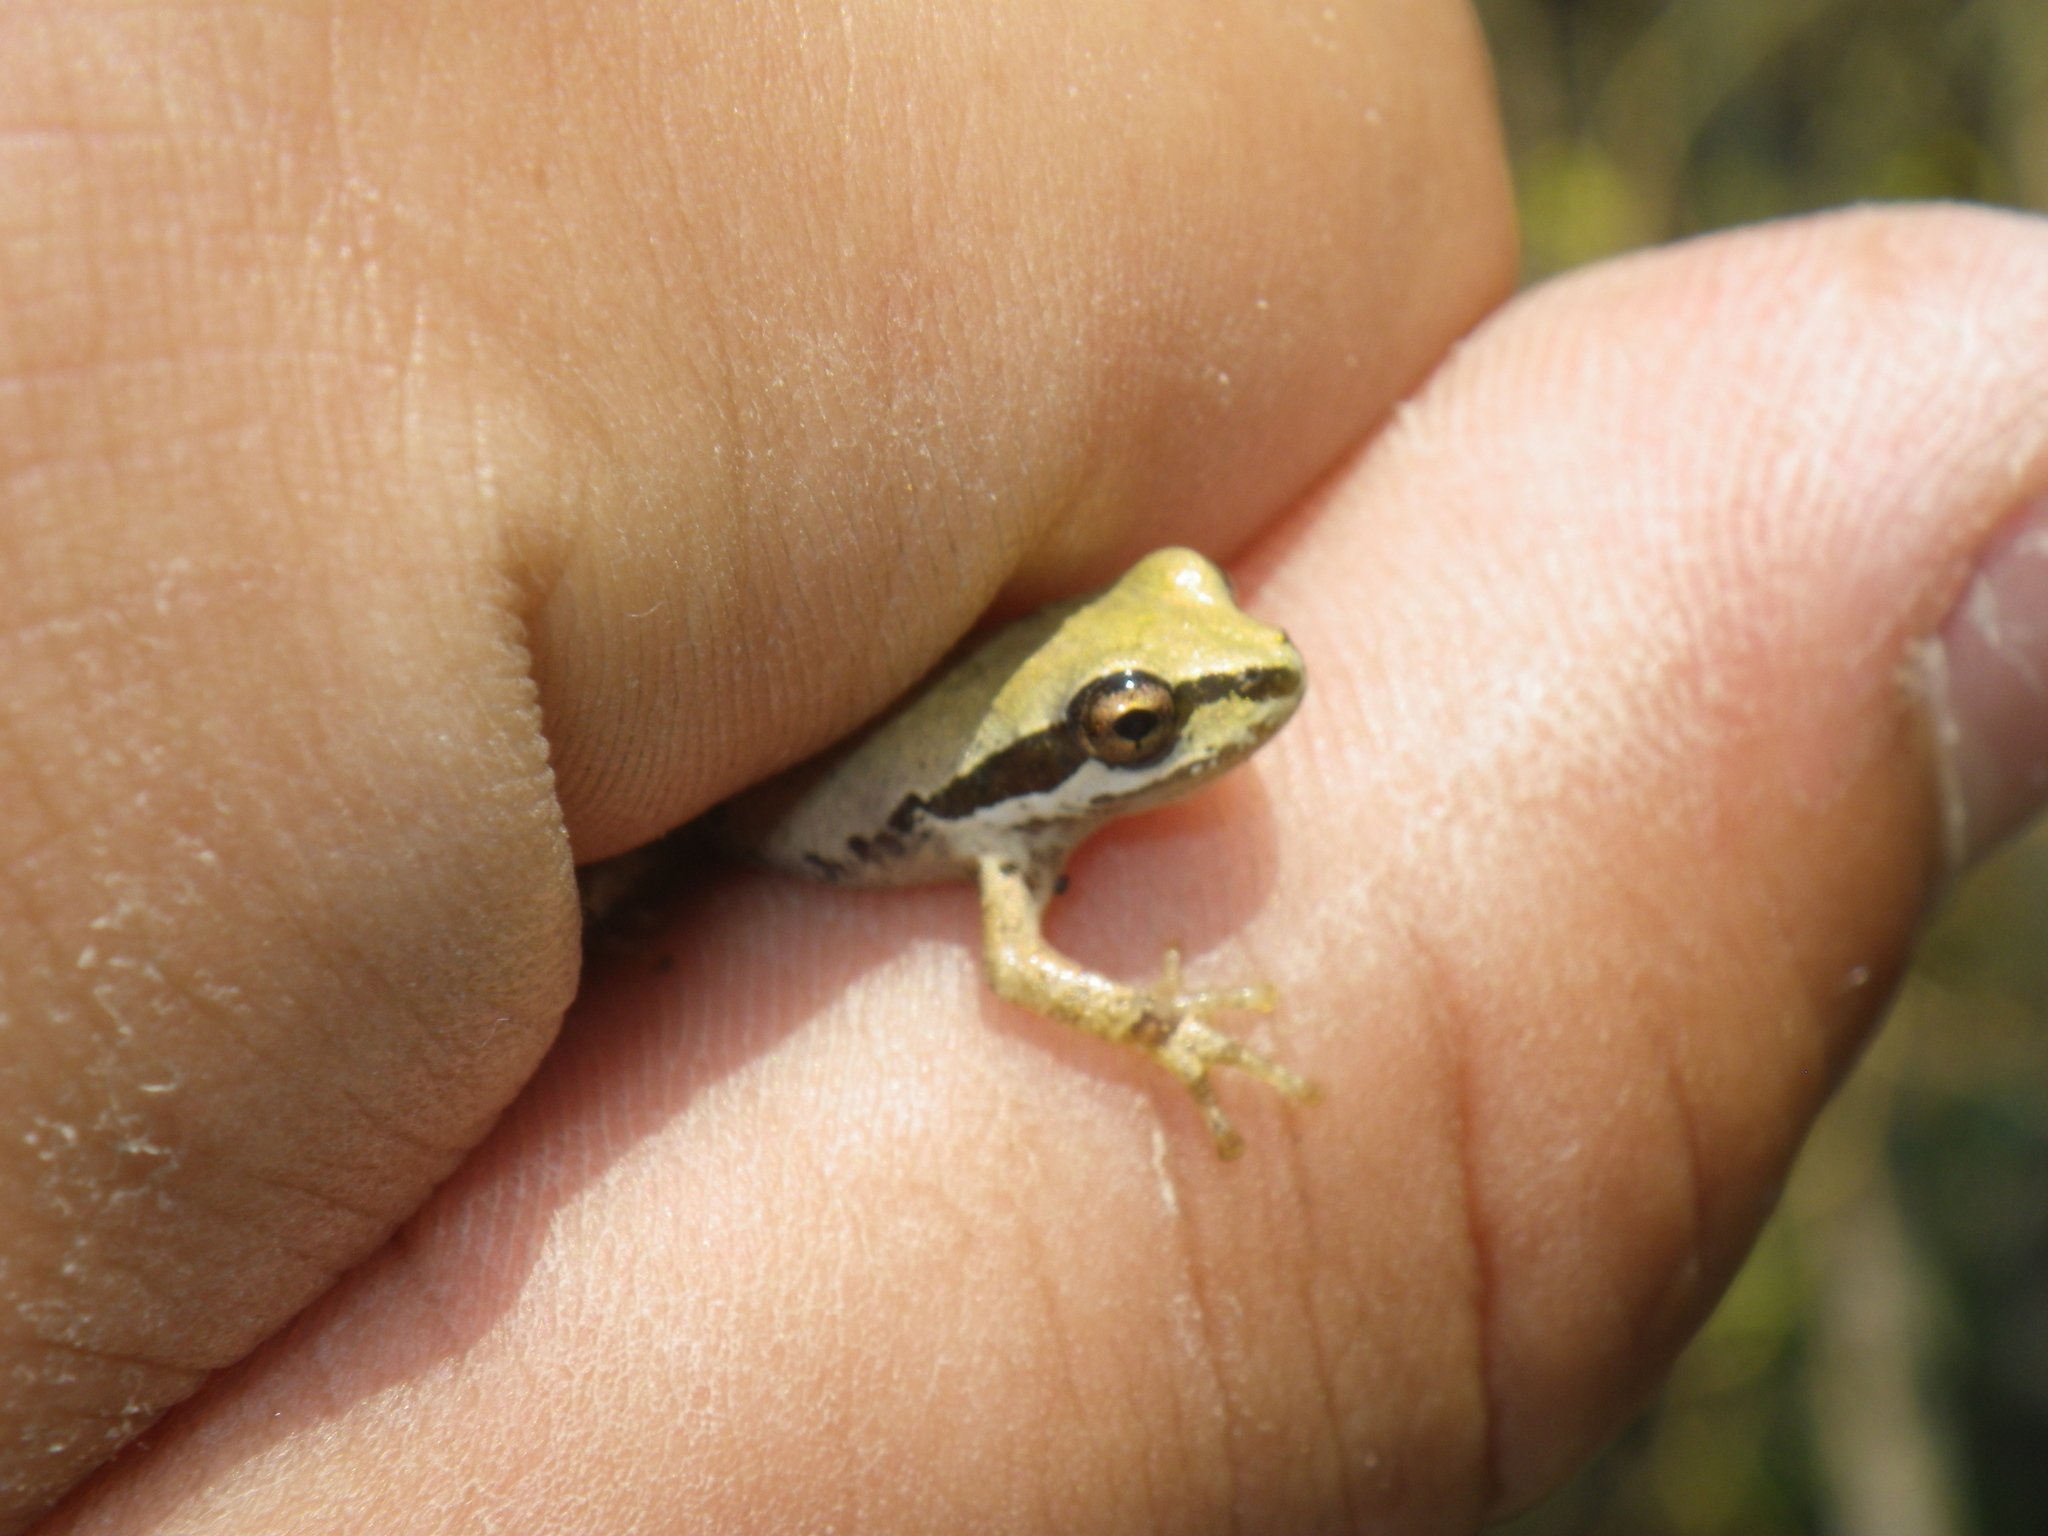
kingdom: Animalia
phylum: Chordata
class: Amphibia
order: Anura
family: Hylidae
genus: Pseudacris
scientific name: Pseudacris regilla
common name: Pacific chorus frog
